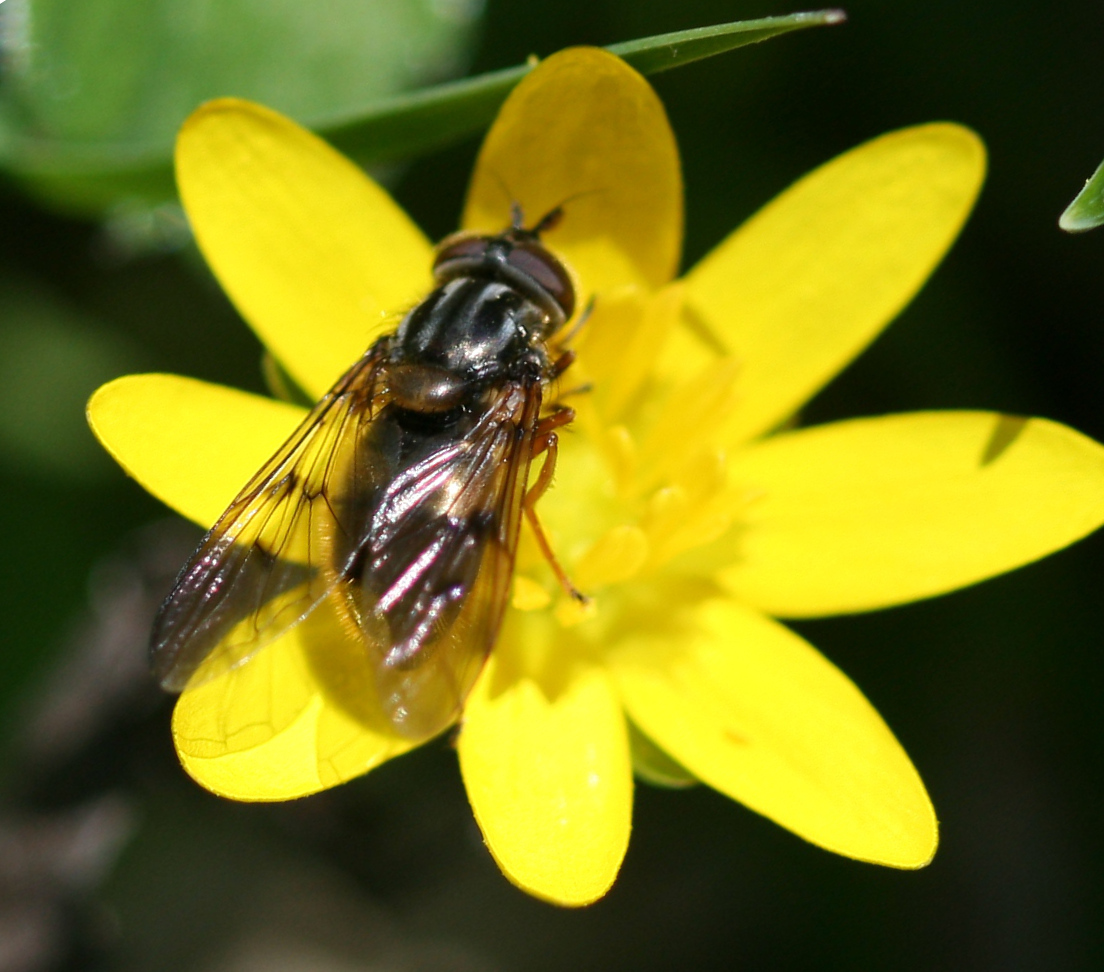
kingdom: Animalia
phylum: Arthropoda
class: Insecta
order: Diptera
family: Syrphidae
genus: Ferdinandea
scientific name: Ferdinandea cuprea
